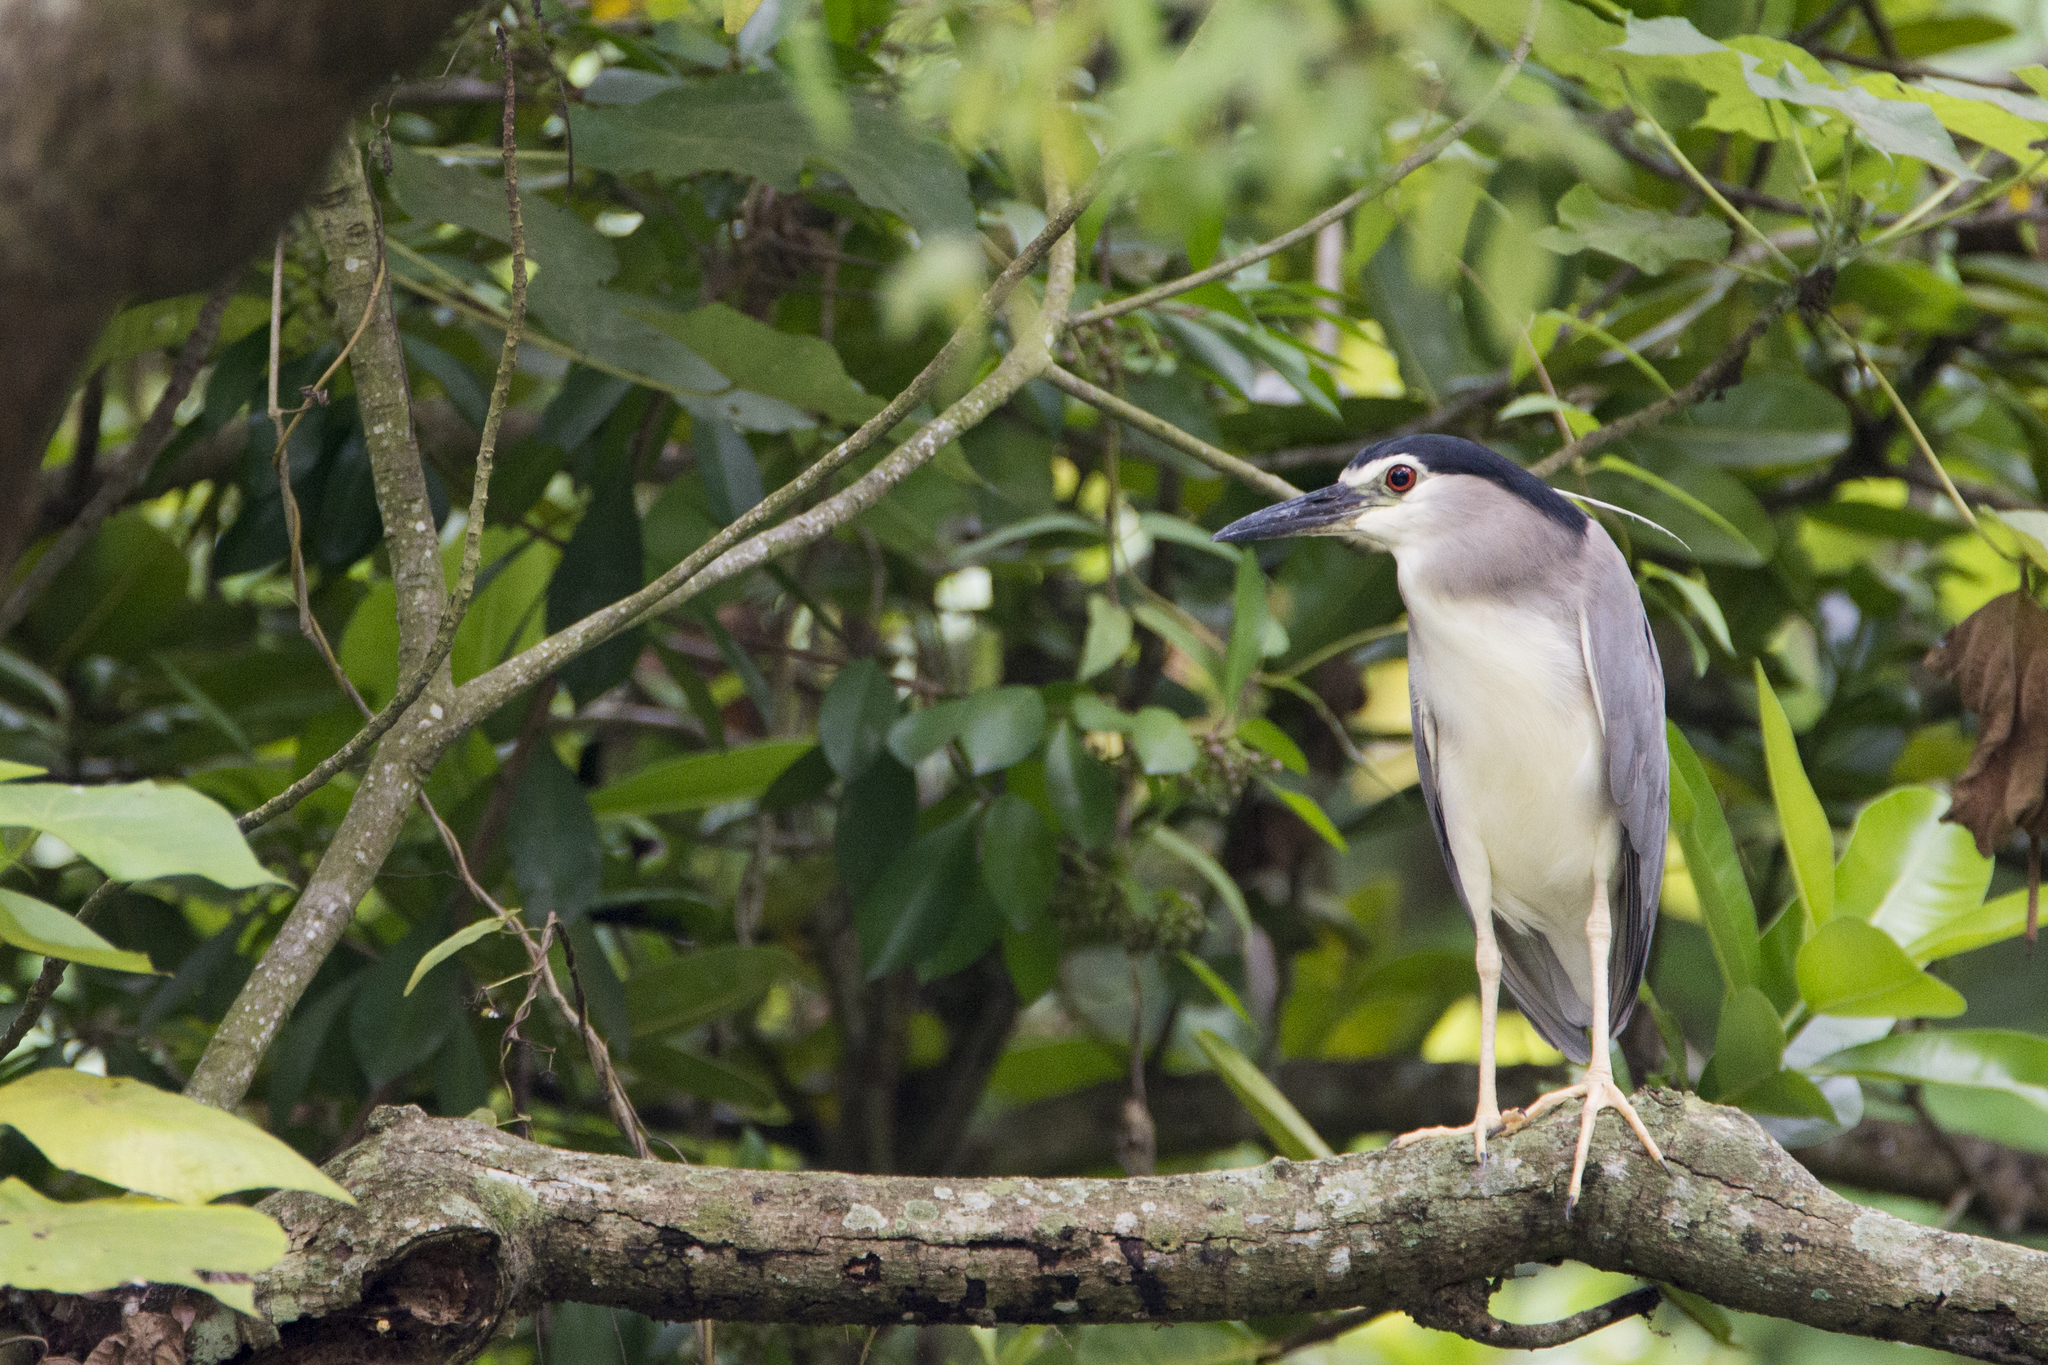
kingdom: Animalia
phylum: Chordata
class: Aves
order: Pelecaniformes
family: Ardeidae
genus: Nycticorax
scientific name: Nycticorax nycticorax
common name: Black-crowned night heron
